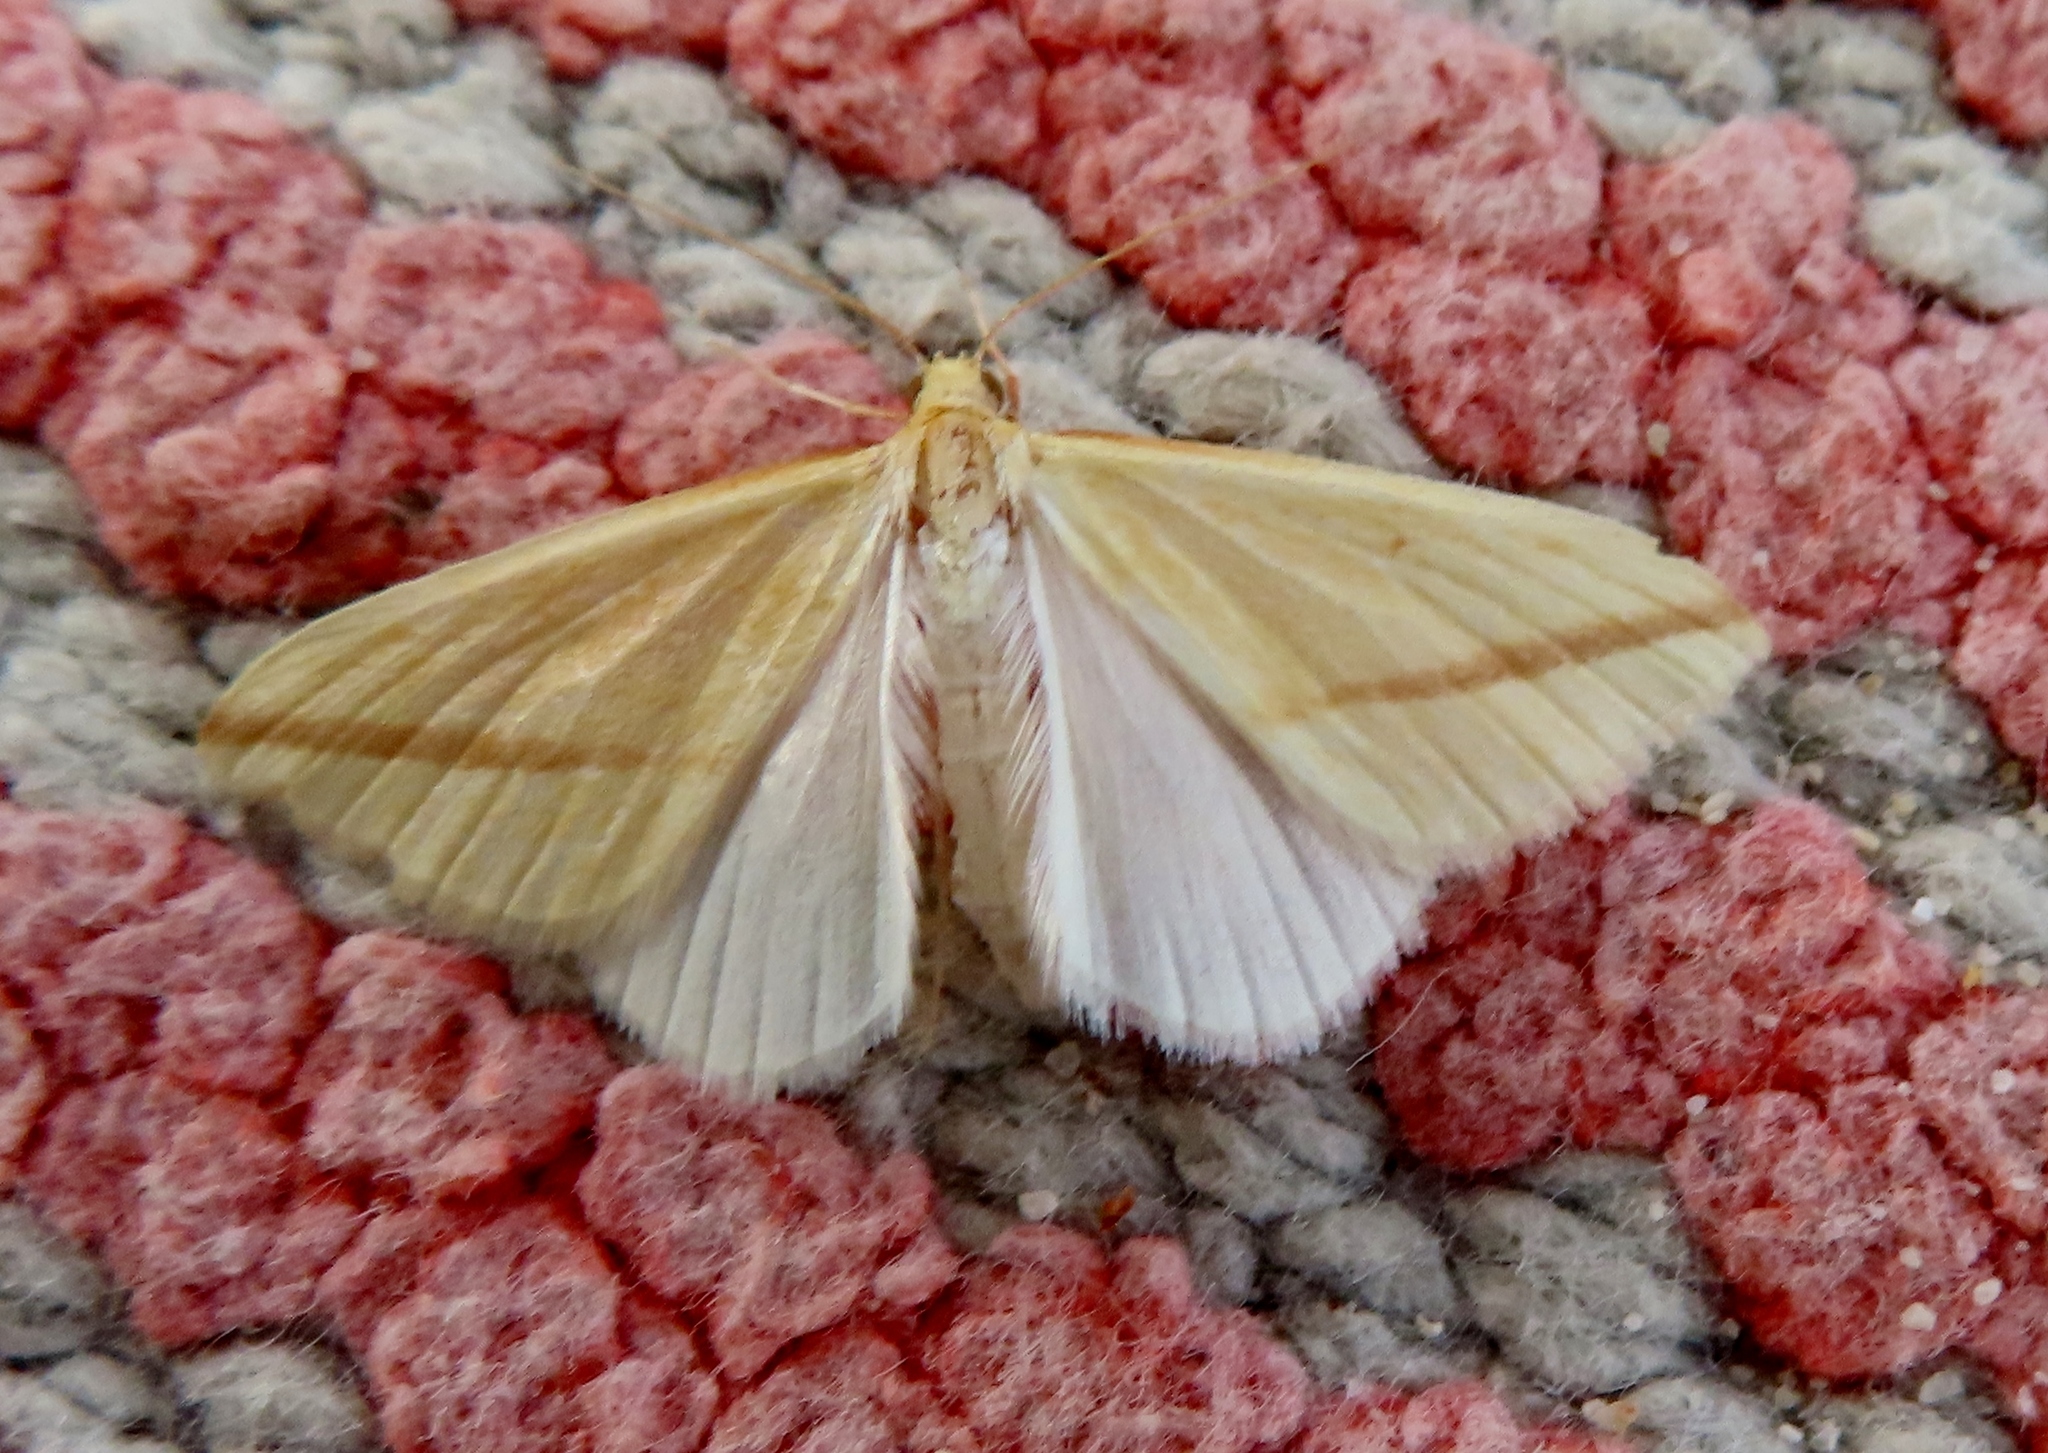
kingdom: Animalia
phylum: Arthropoda
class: Insecta
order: Lepidoptera
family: Geometridae
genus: Rhodometra
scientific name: Rhodometra sacraria
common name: Vestal
